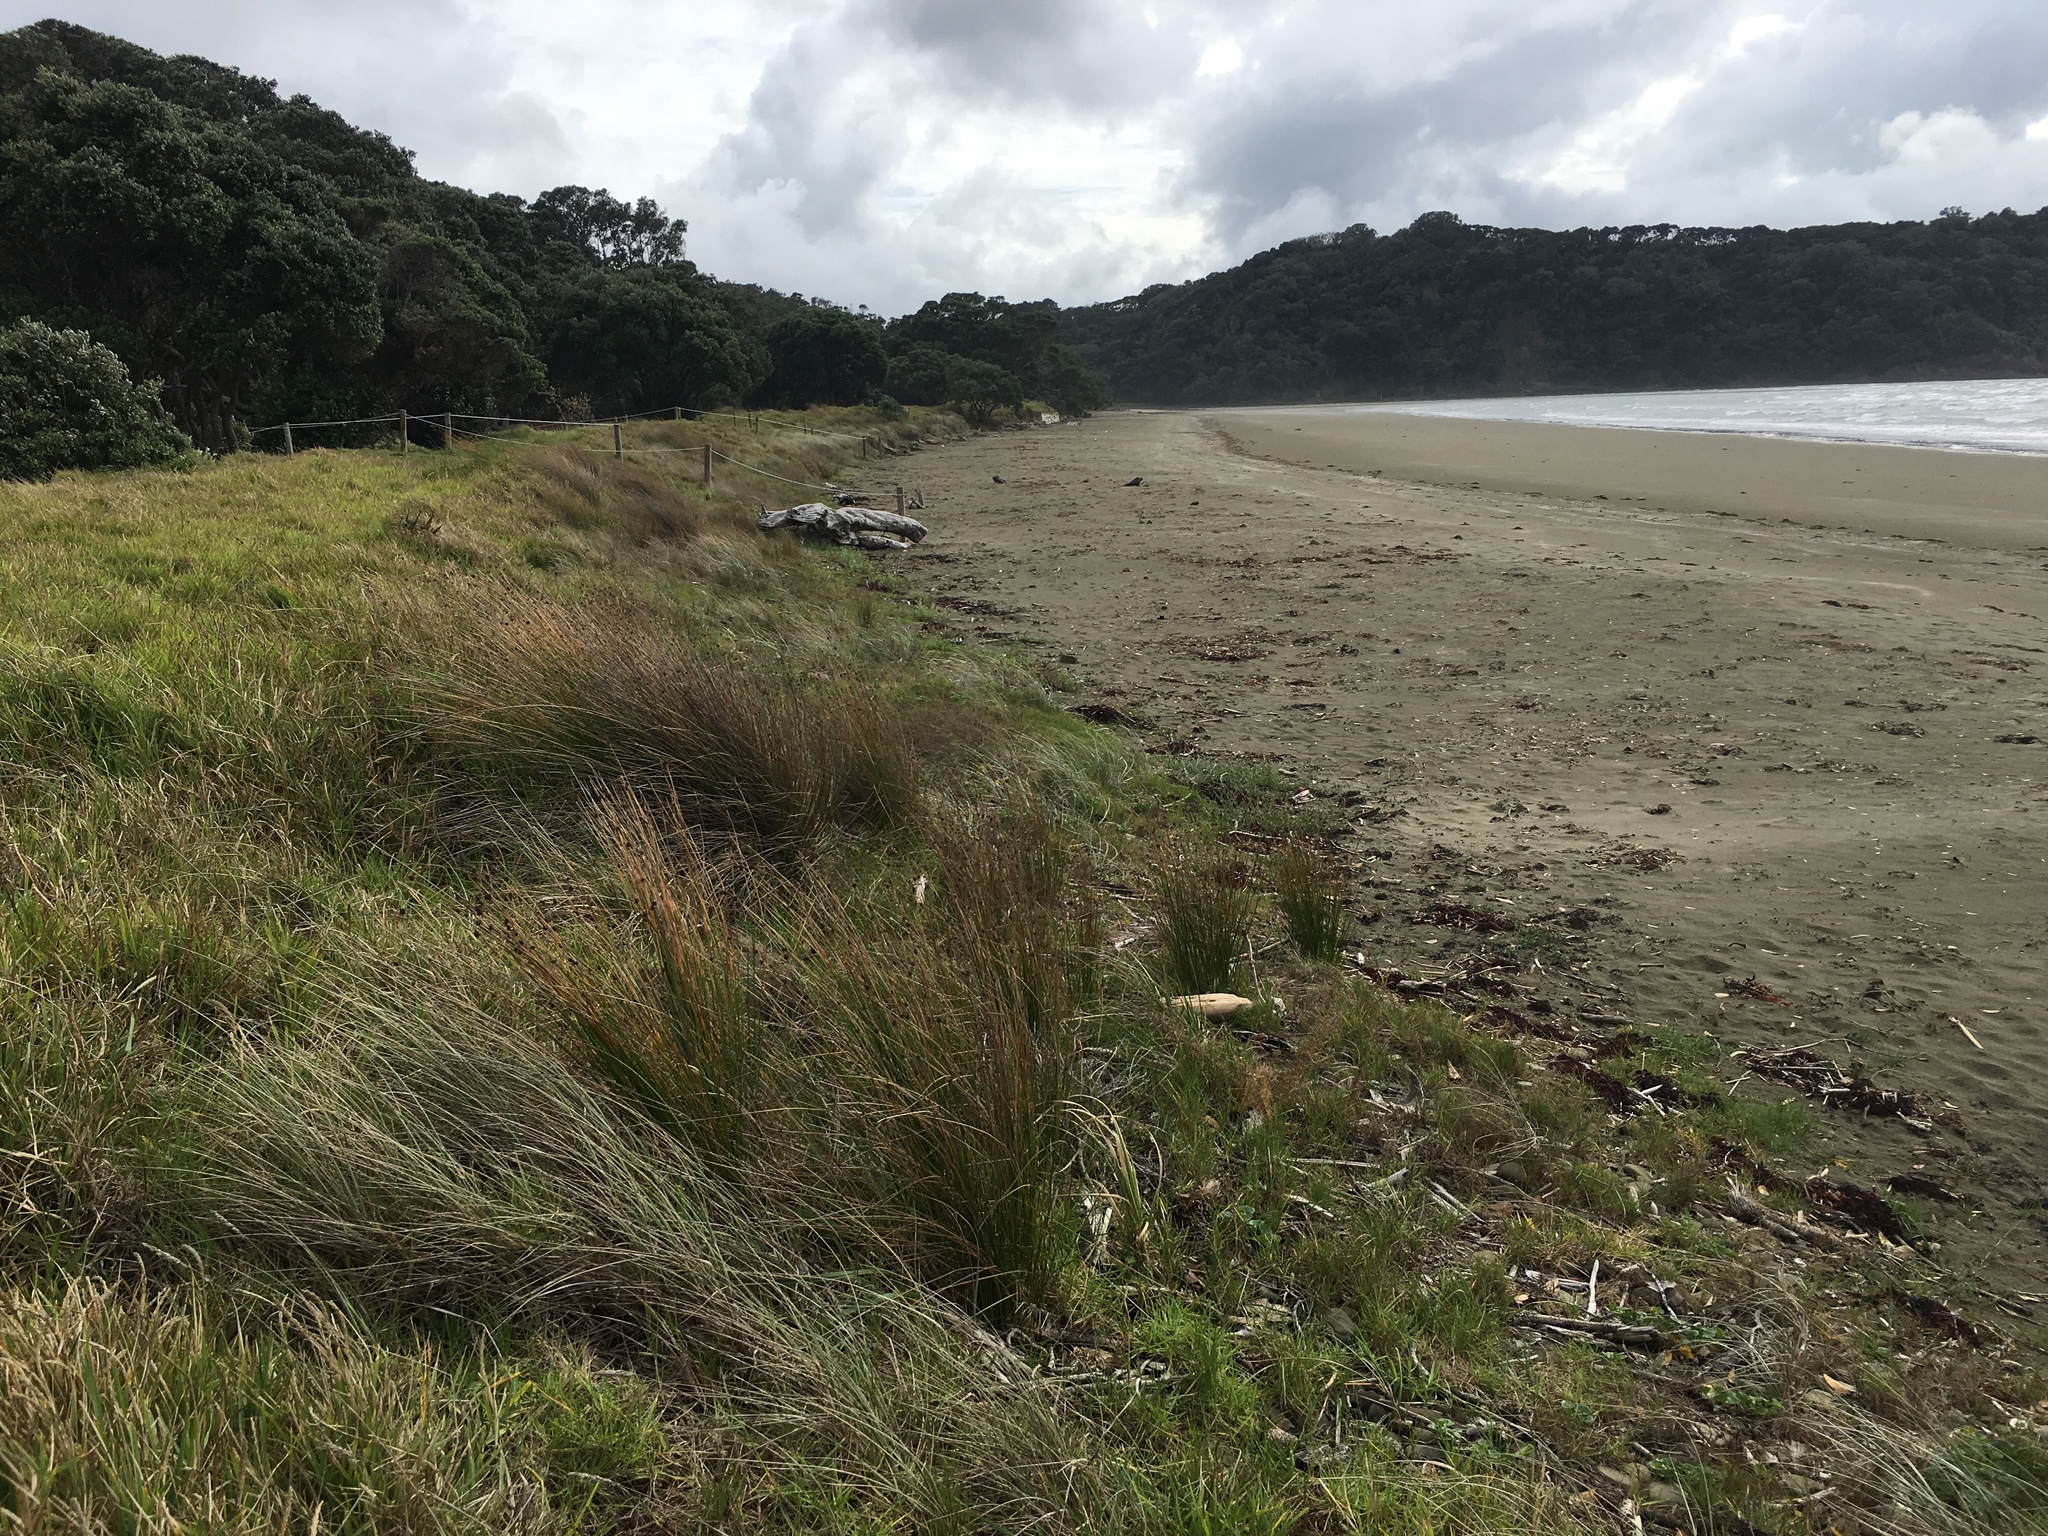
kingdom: Plantae
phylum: Tracheophyta
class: Liliopsida
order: Poales
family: Cyperaceae
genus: Ficinia
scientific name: Ficinia nodosa
